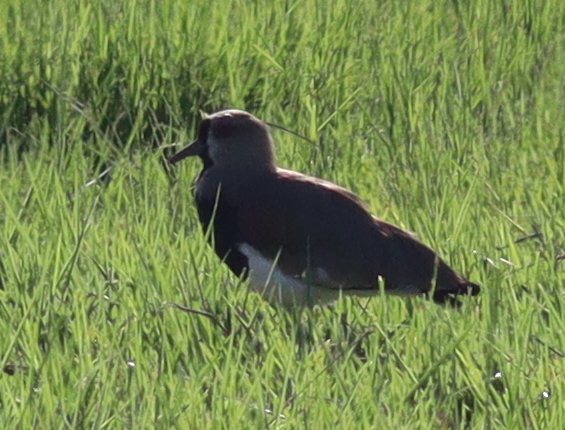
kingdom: Animalia
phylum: Chordata
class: Aves
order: Charadriiformes
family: Charadriidae
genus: Vanellus
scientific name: Vanellus chilensis
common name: Southern lapwing
